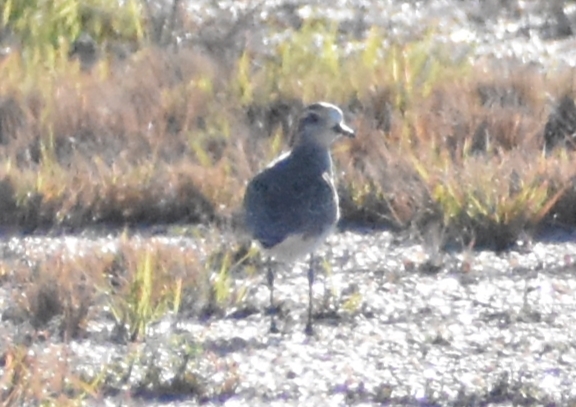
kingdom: Animalia
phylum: Chordata
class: Aves
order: Charadriiformes
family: Charadriidae
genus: Pluvialis
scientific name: Pluvialis dominica
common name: American golden plover
